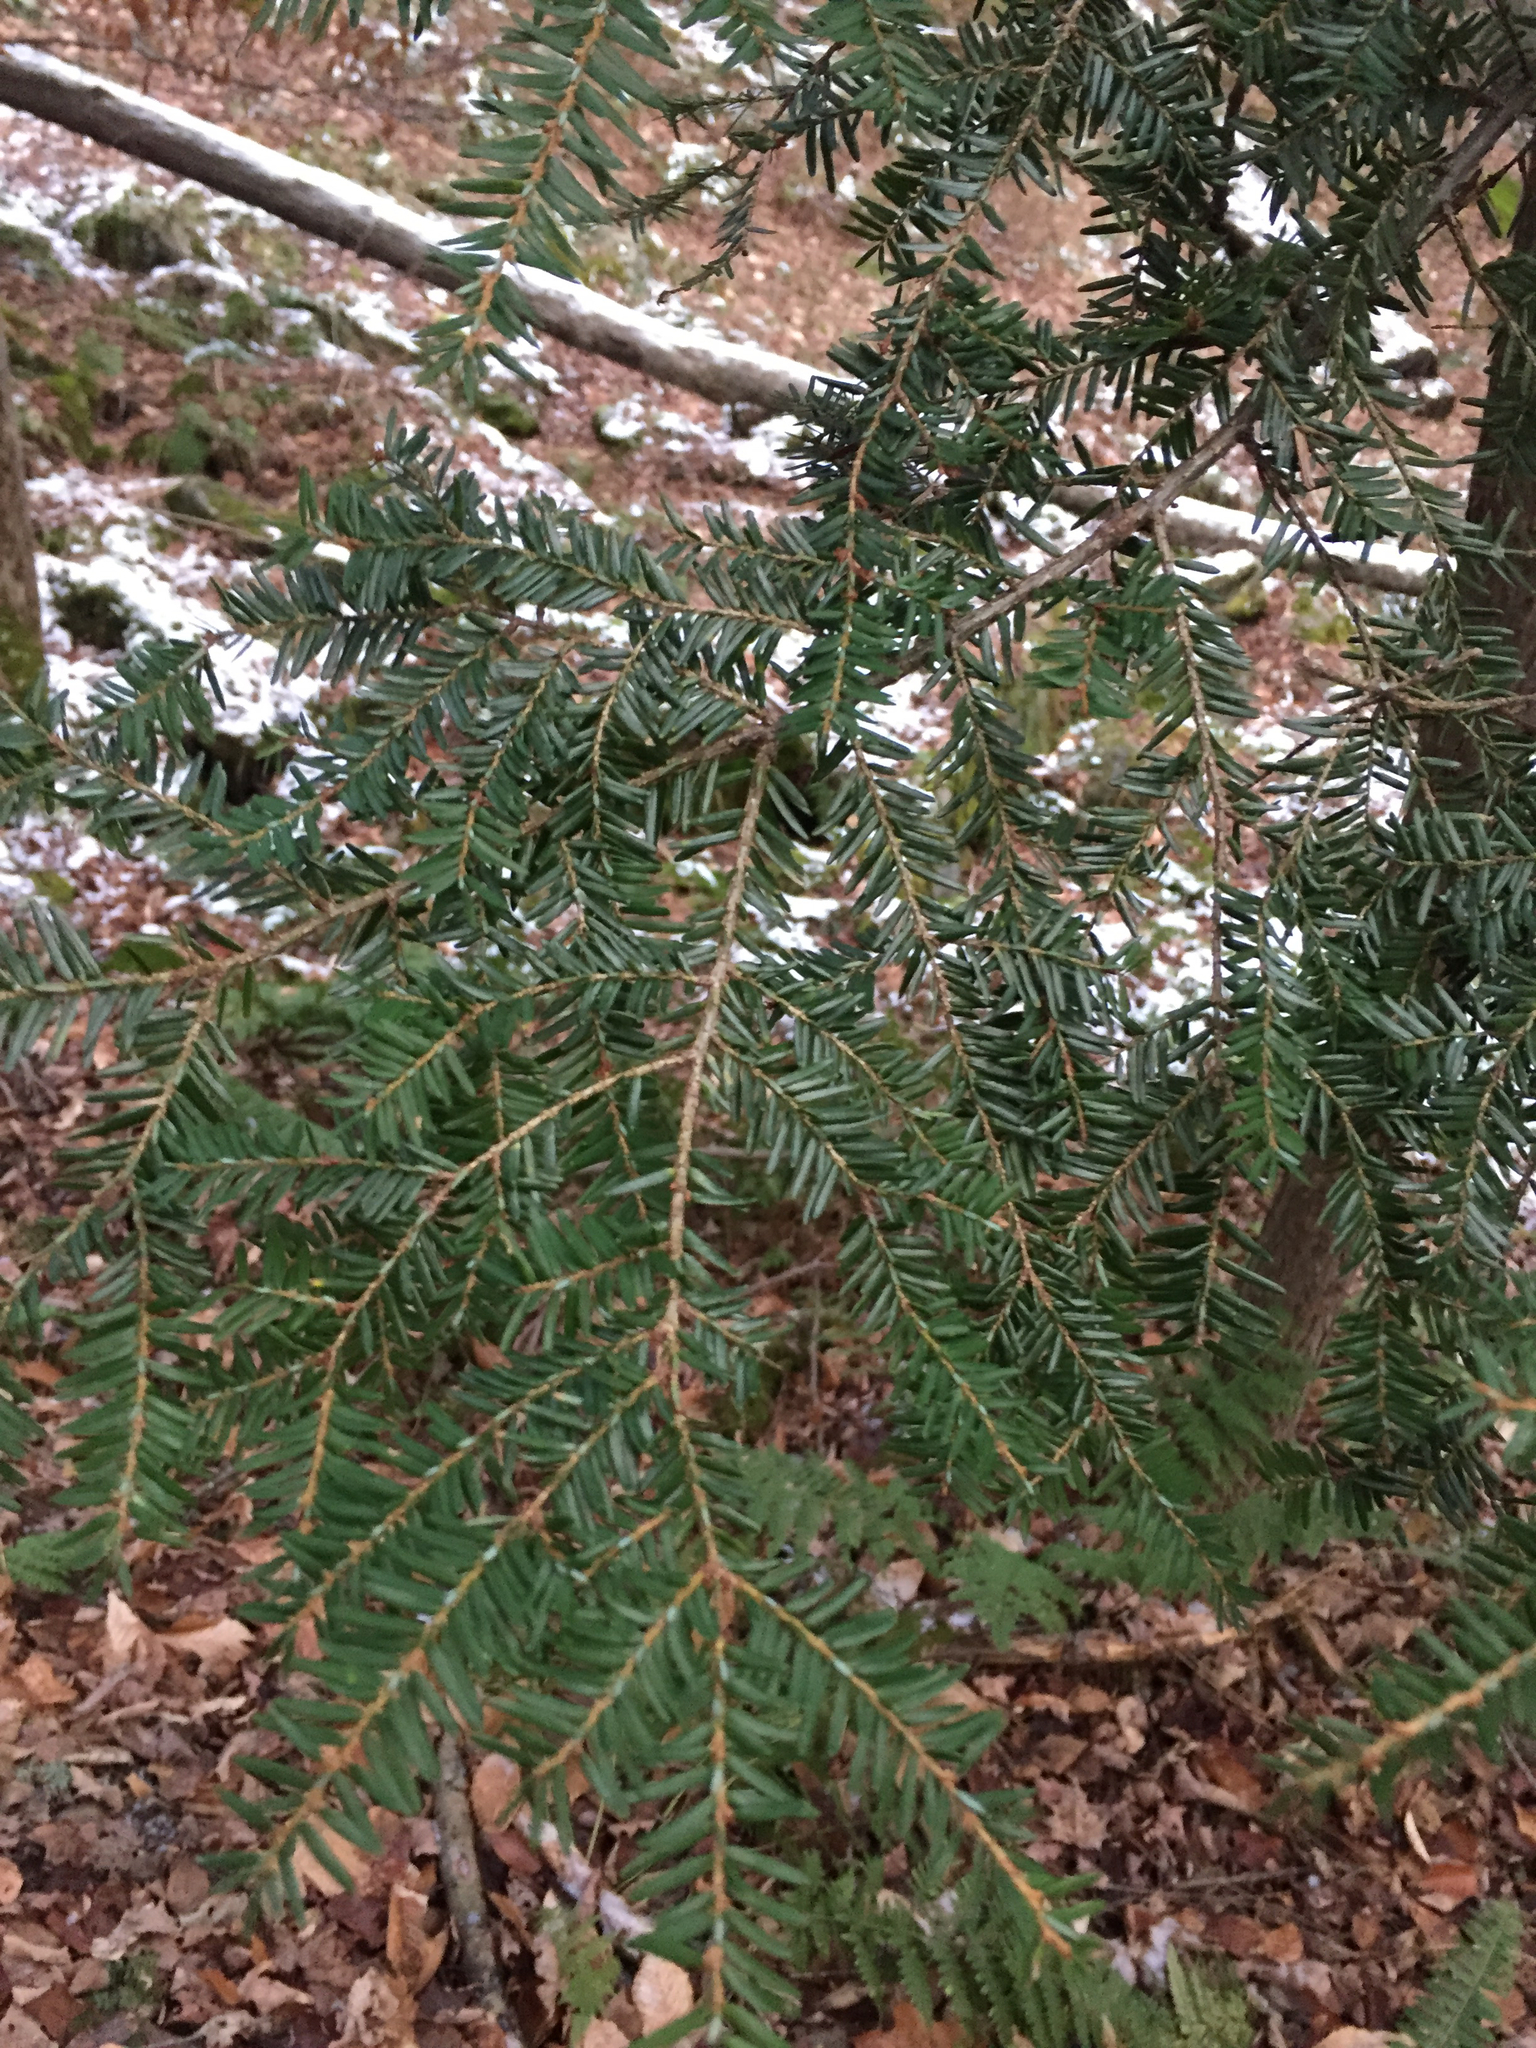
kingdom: Plantae
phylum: Tracheophyta
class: Pinopsida
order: Pinales
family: Pinaceae
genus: Tsuga
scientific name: Tsuga canadensis
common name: Eastern hemlock
